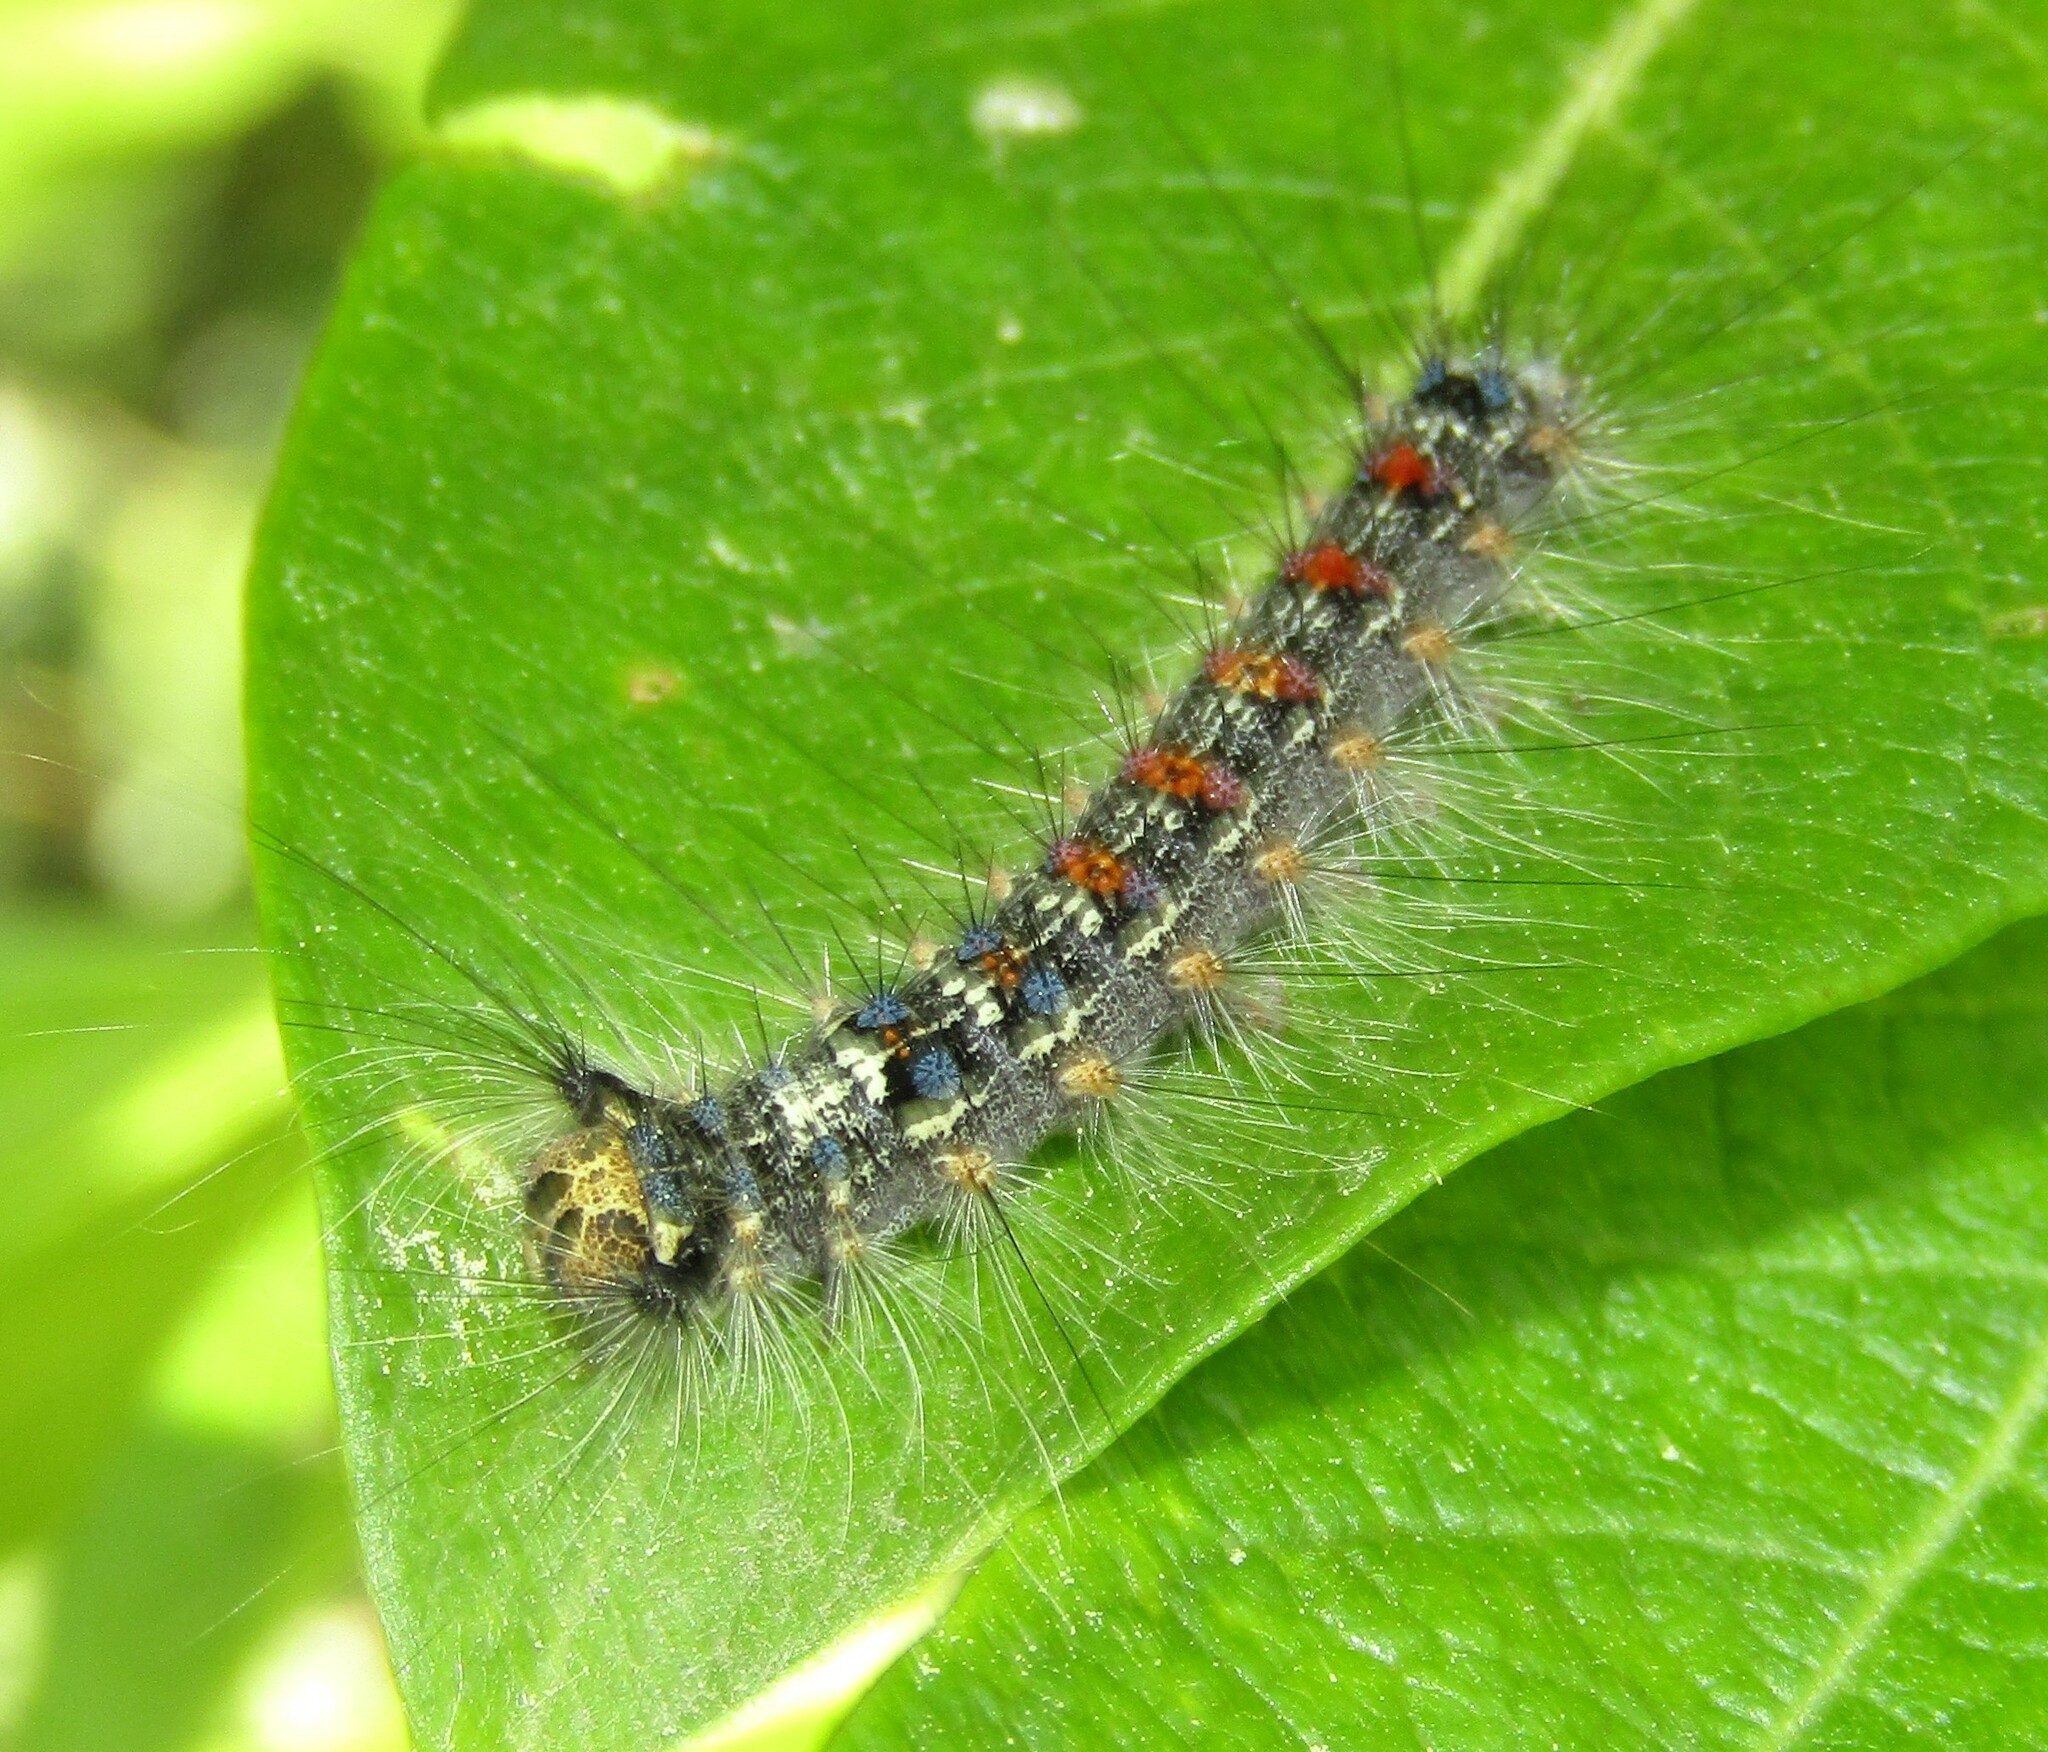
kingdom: Animalia
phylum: Arthropoda
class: Insecta
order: Lepidoptera
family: Erebidae
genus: Lymantria
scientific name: Lymantria dispar
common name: Gypsy moth
